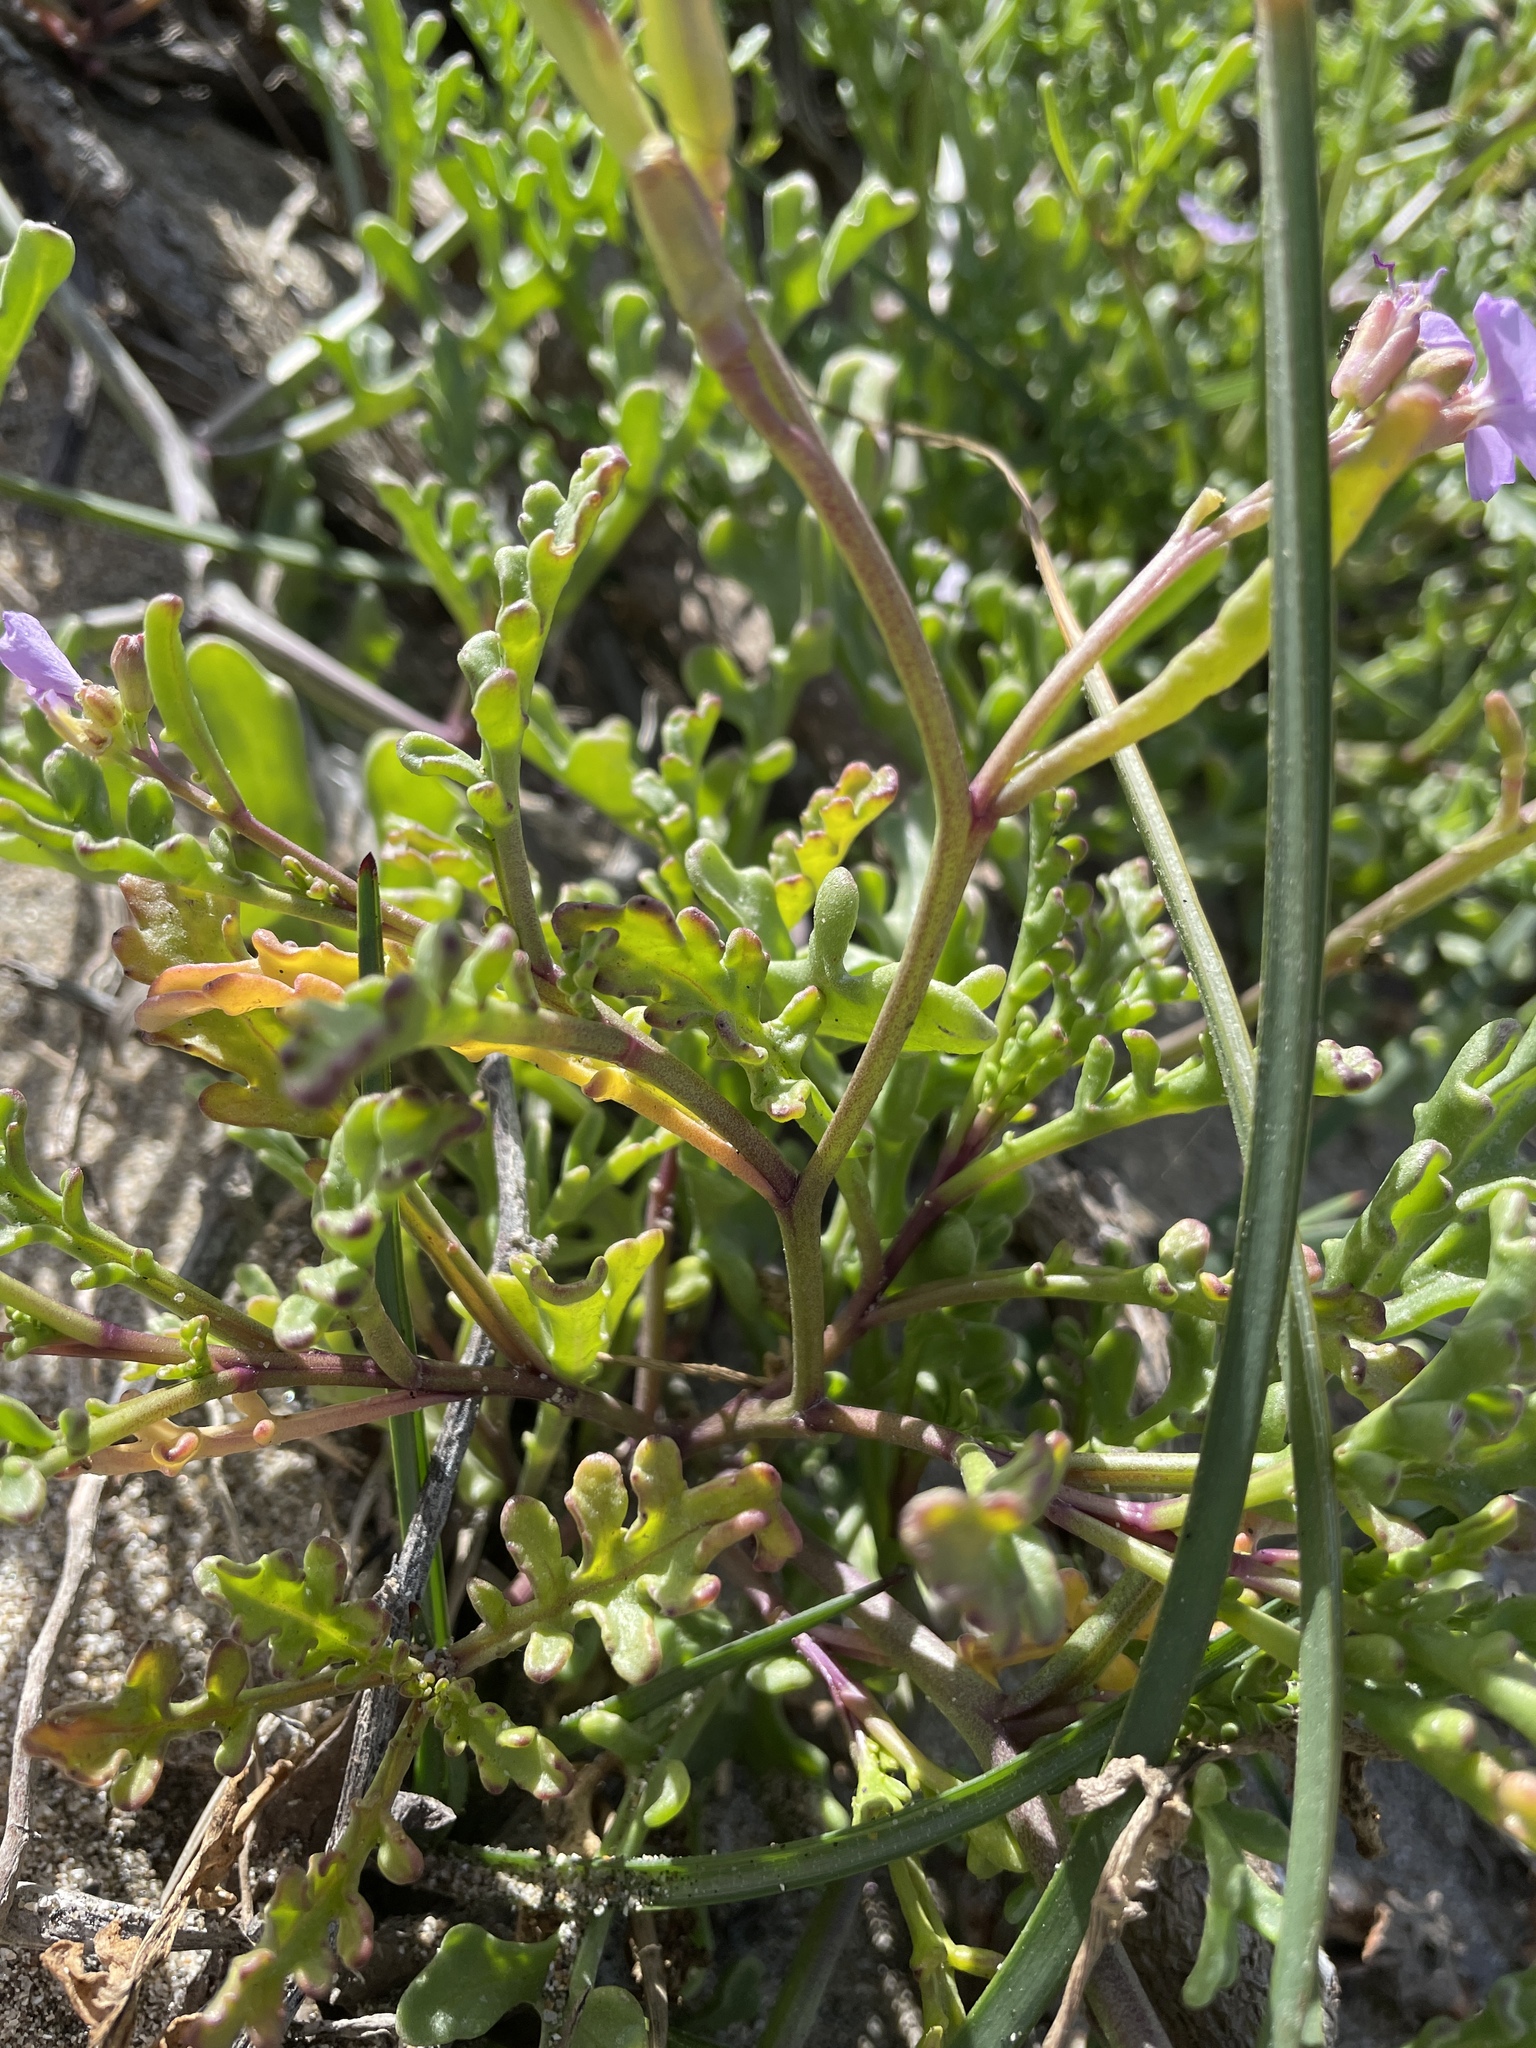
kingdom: Plantae
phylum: Tracheophyta
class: Magnoliopsida
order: Brassicales
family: Brassicaceae
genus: Cakile
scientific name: Cakile maritima
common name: Sea rocket
